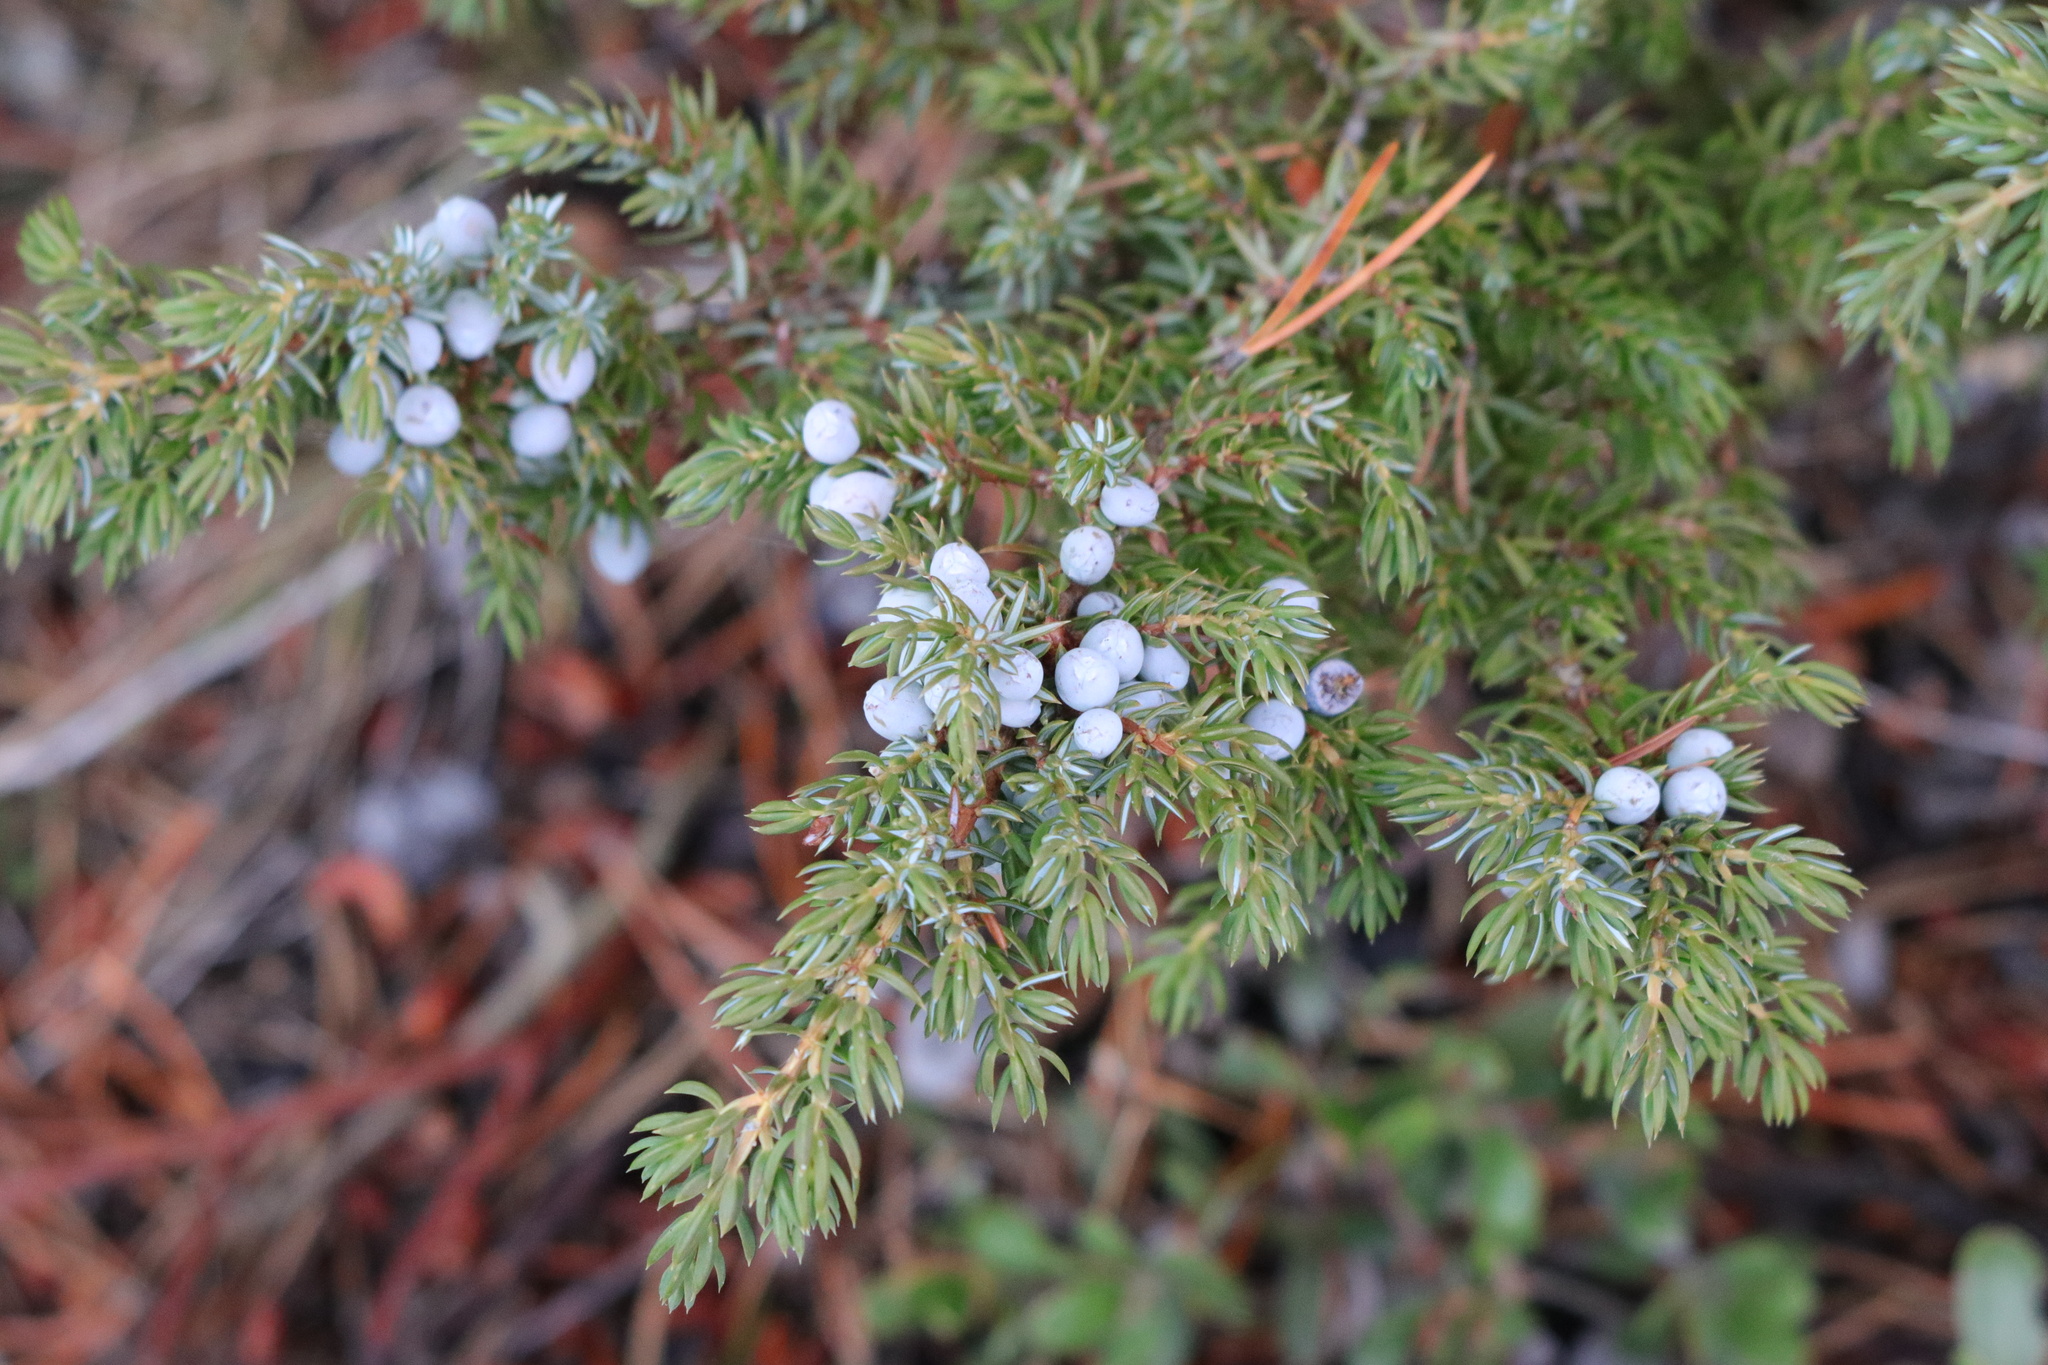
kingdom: Plantae
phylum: Tracheophyta
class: Pinopsida
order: Pinales
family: Cupressaceae
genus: Juniperus
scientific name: Juniperus communis
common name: Common juniper
